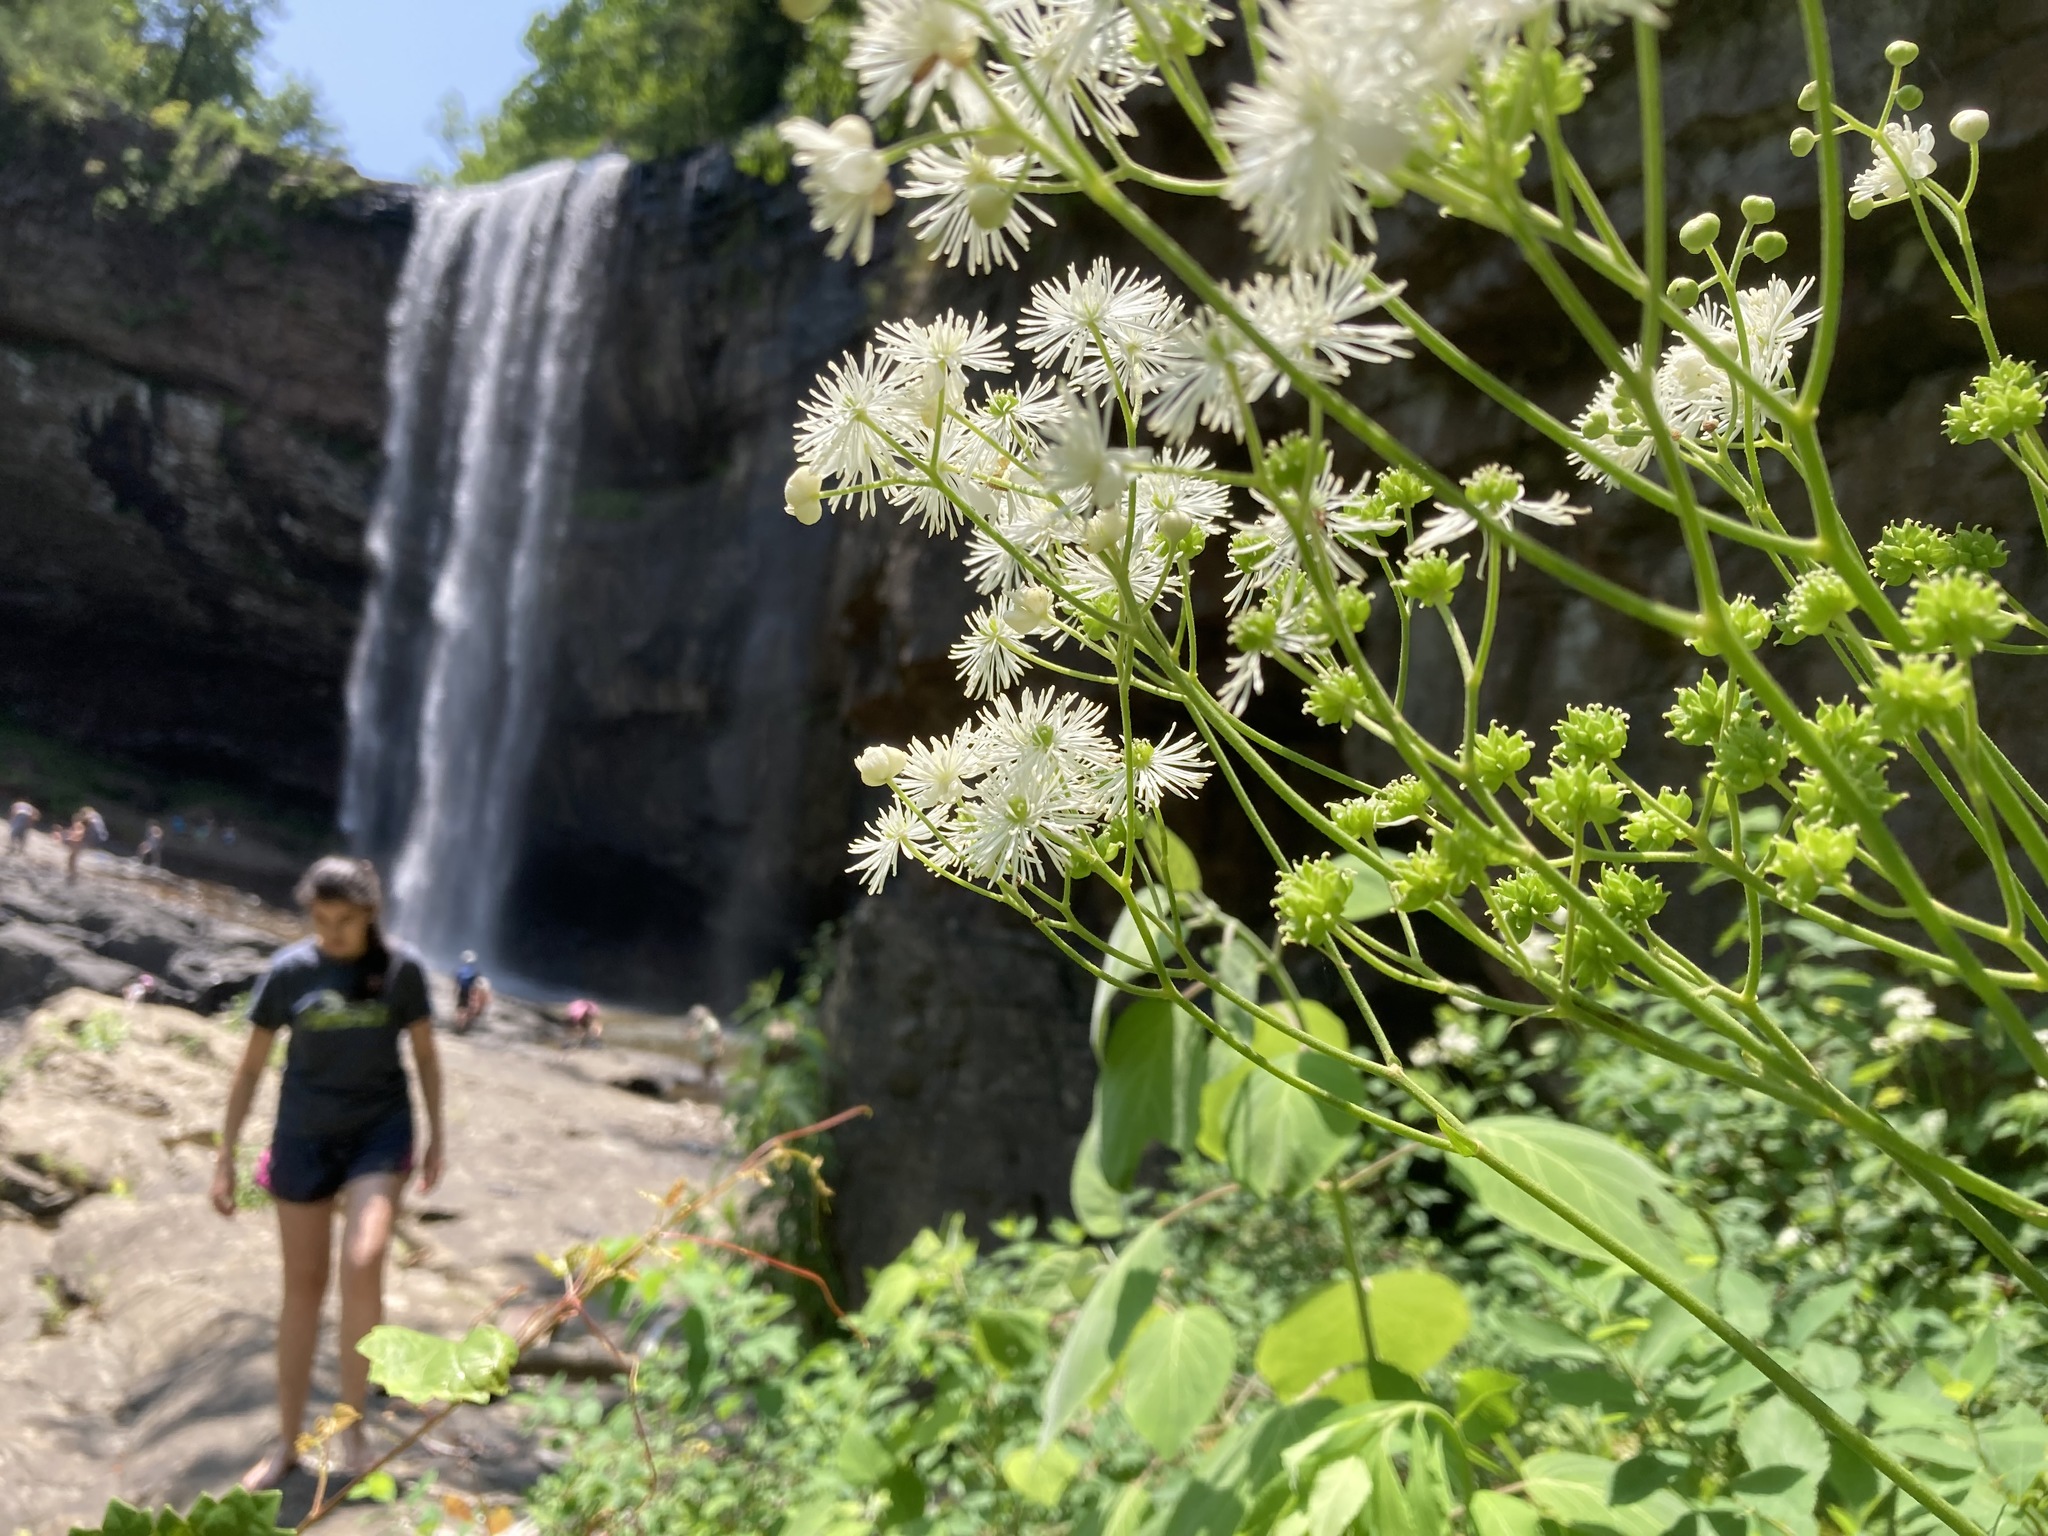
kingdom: Plantae
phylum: Tracheophyta
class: Magnoliopsida
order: Ranunculales
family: Ranunculaceae
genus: Trautvetteria
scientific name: Trautvetteria carolinensis
